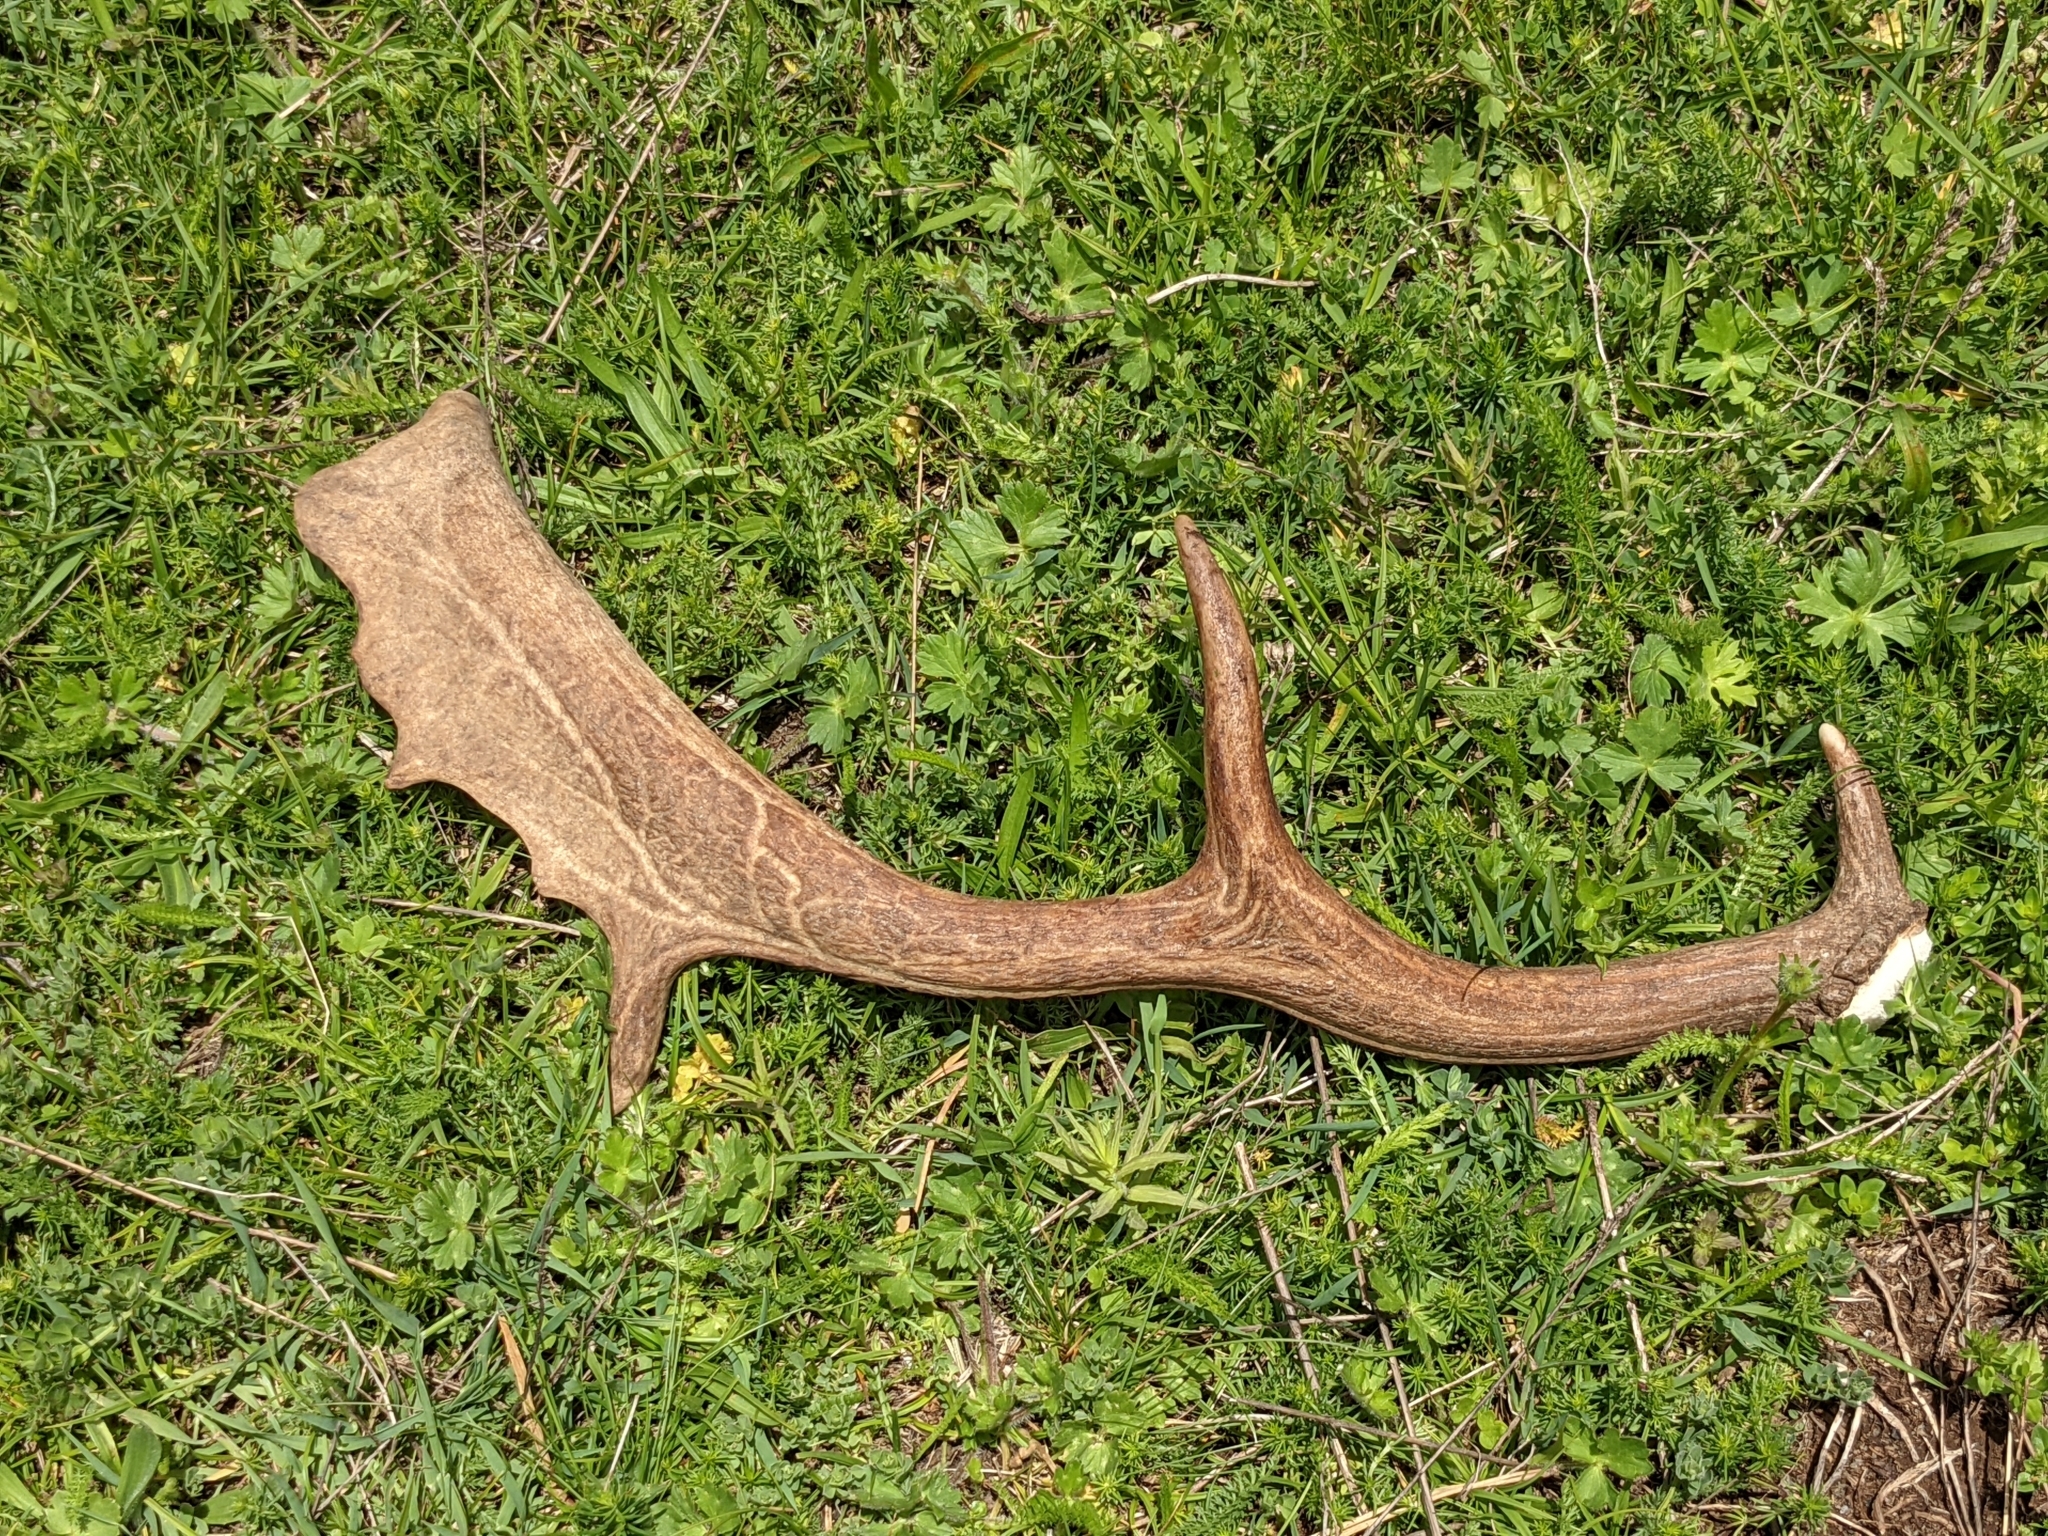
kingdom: Animalia
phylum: Chordata
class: Mammalia
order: Artiodactyla
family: Cervidae
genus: Dama
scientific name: Dama dama
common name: Fallow deer
